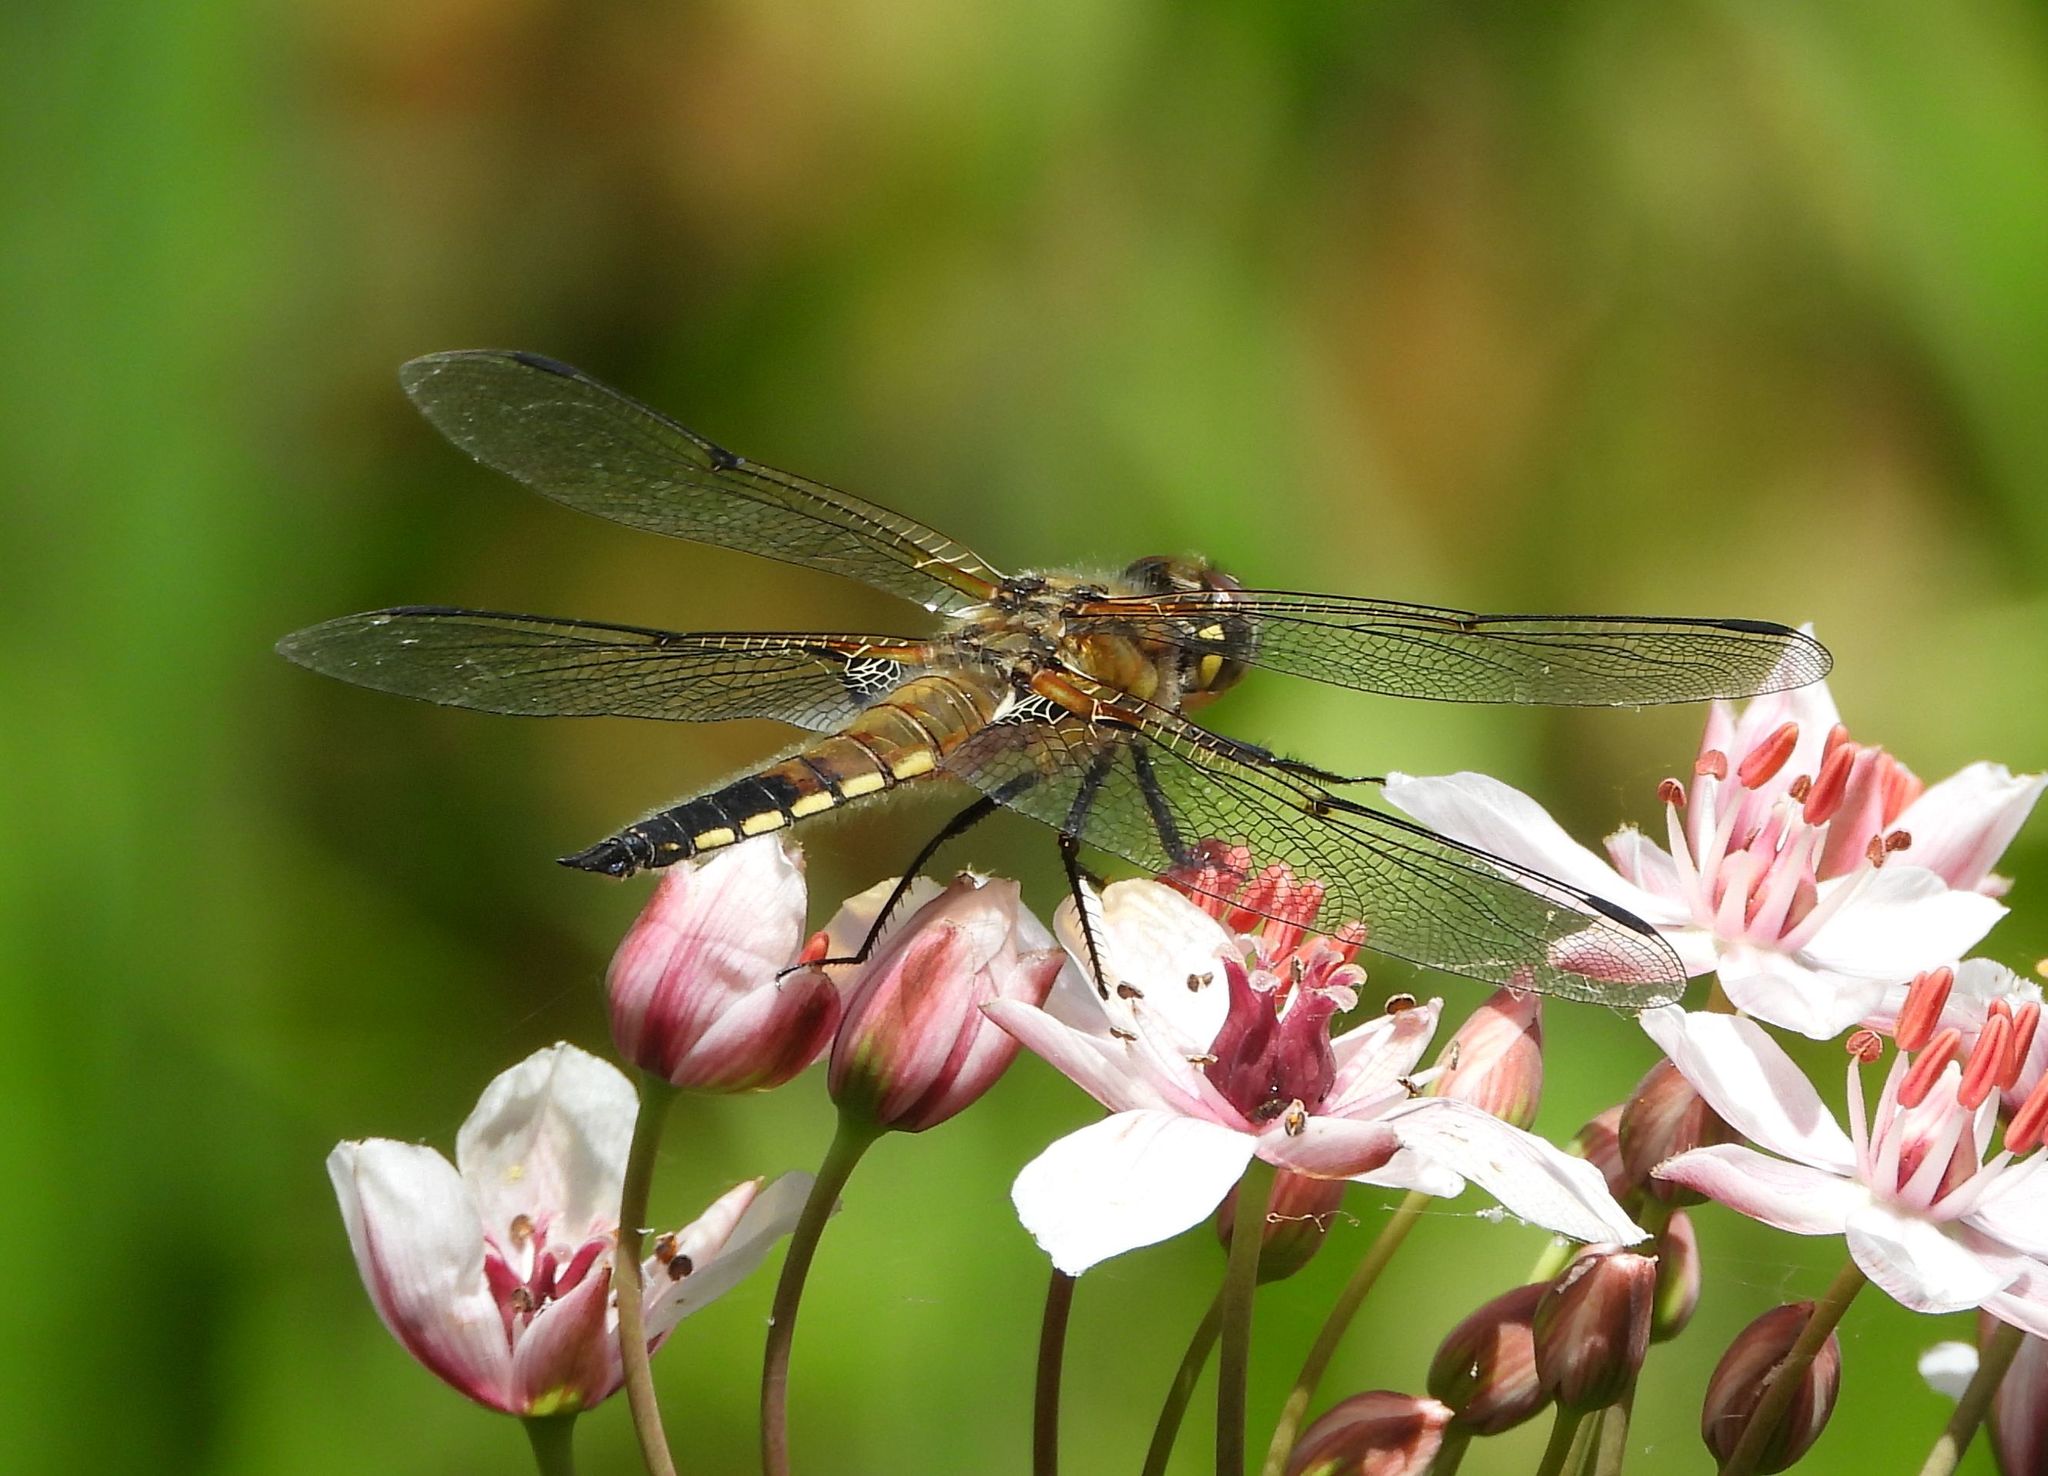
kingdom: Animalia
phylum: Arthropoda
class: Insecta
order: Odonata
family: Libellulidae
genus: Libellula
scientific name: Libellula quadrimaculata
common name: Four-spotted chaser
